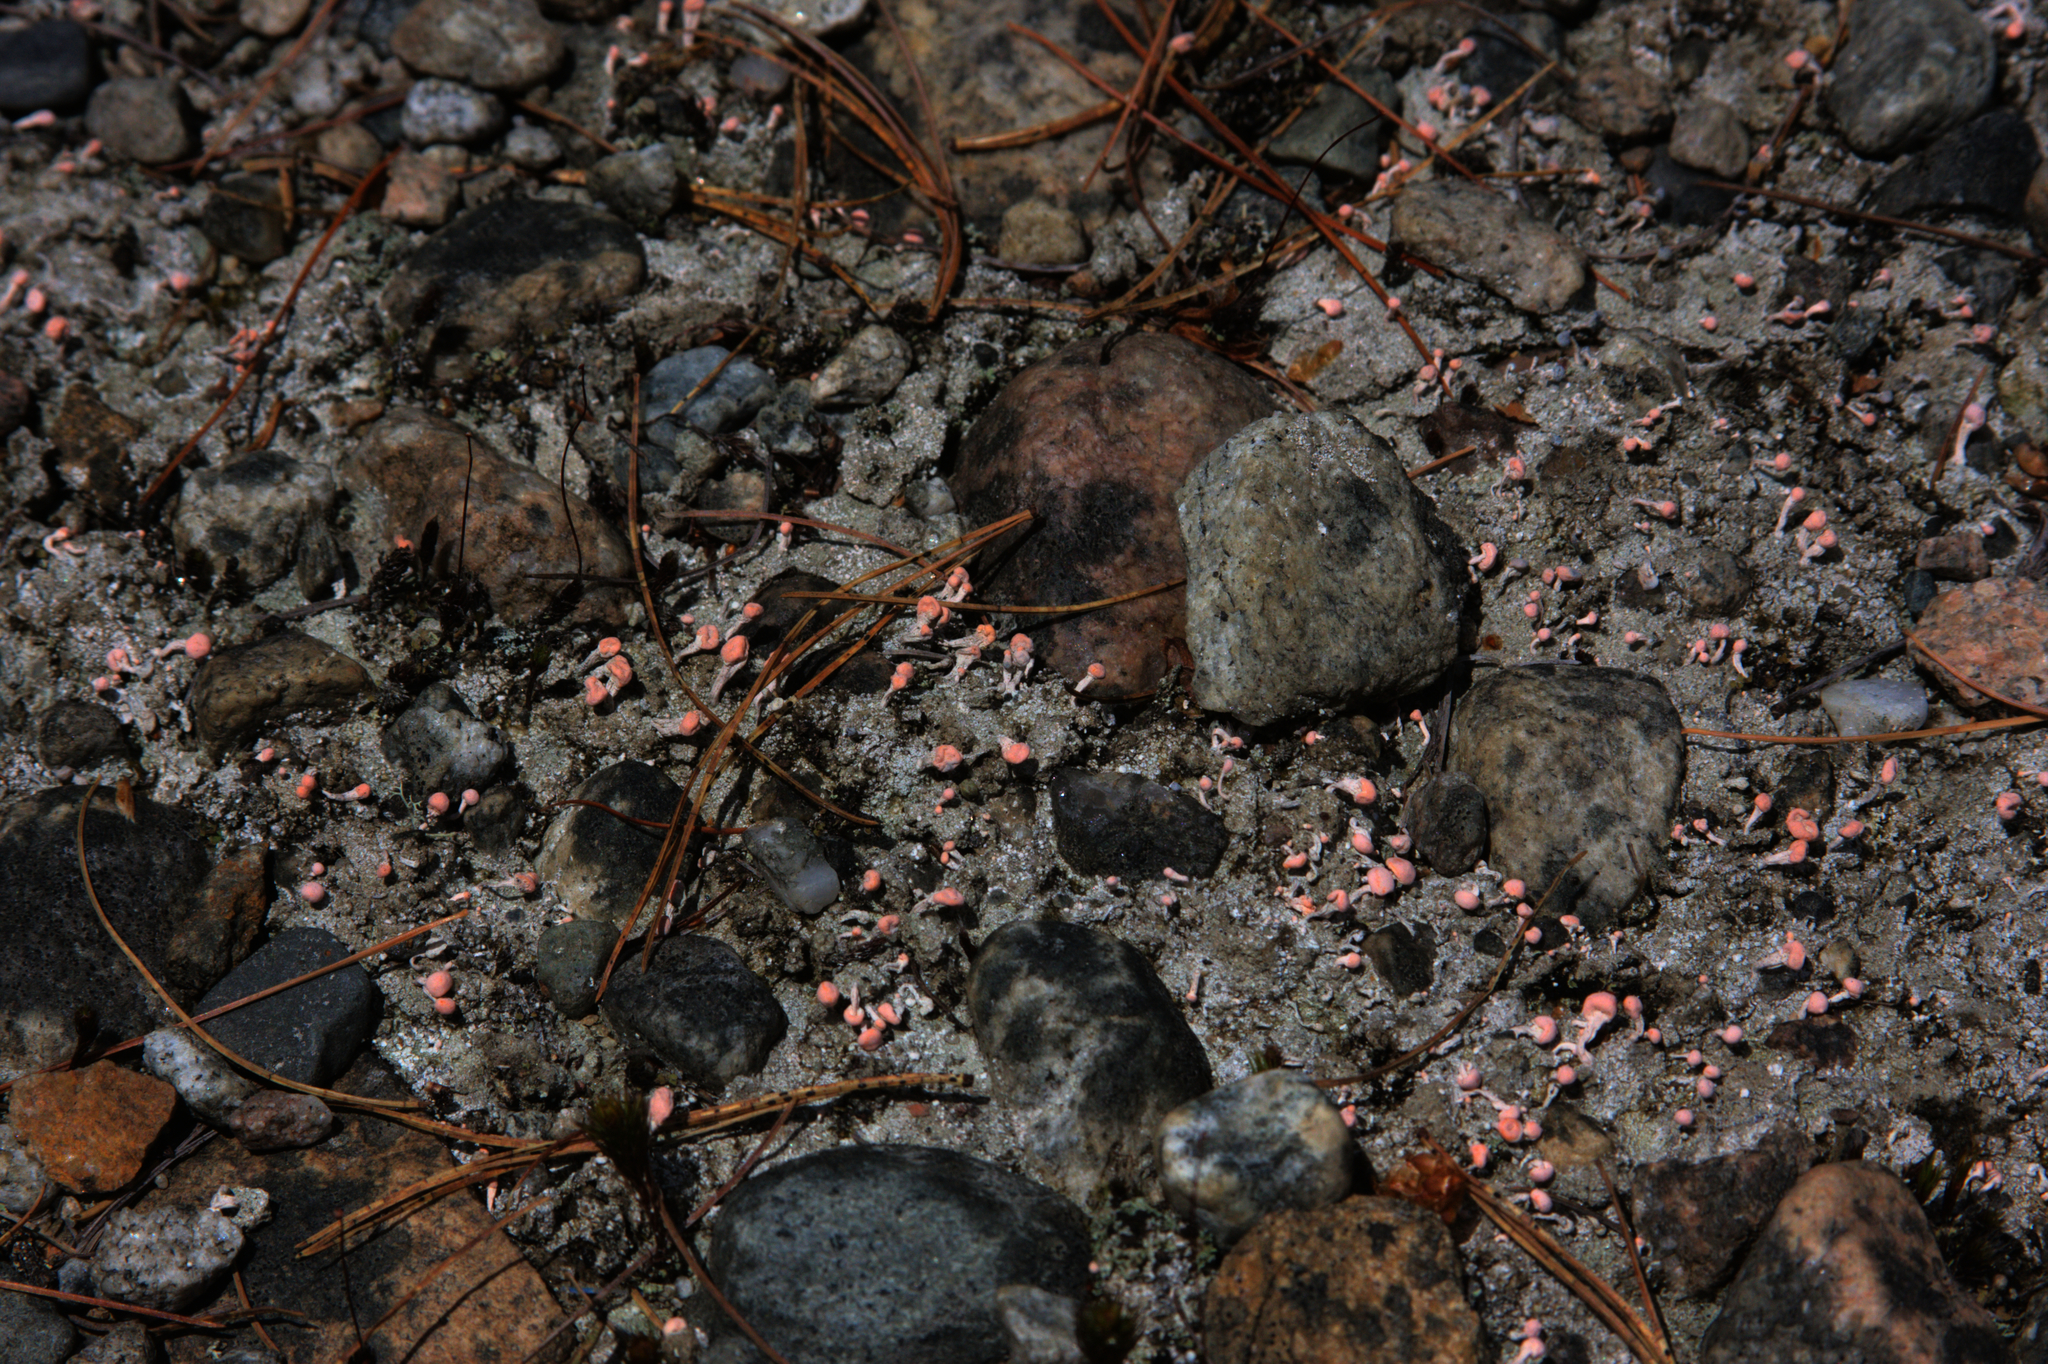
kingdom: Fungi
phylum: Ascomycota
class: Lecanoromycetes
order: Pertusariales
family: Icmadophilaceae
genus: Dibaeis
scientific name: Dibaeis baeomyces
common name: Pink earth lichen
